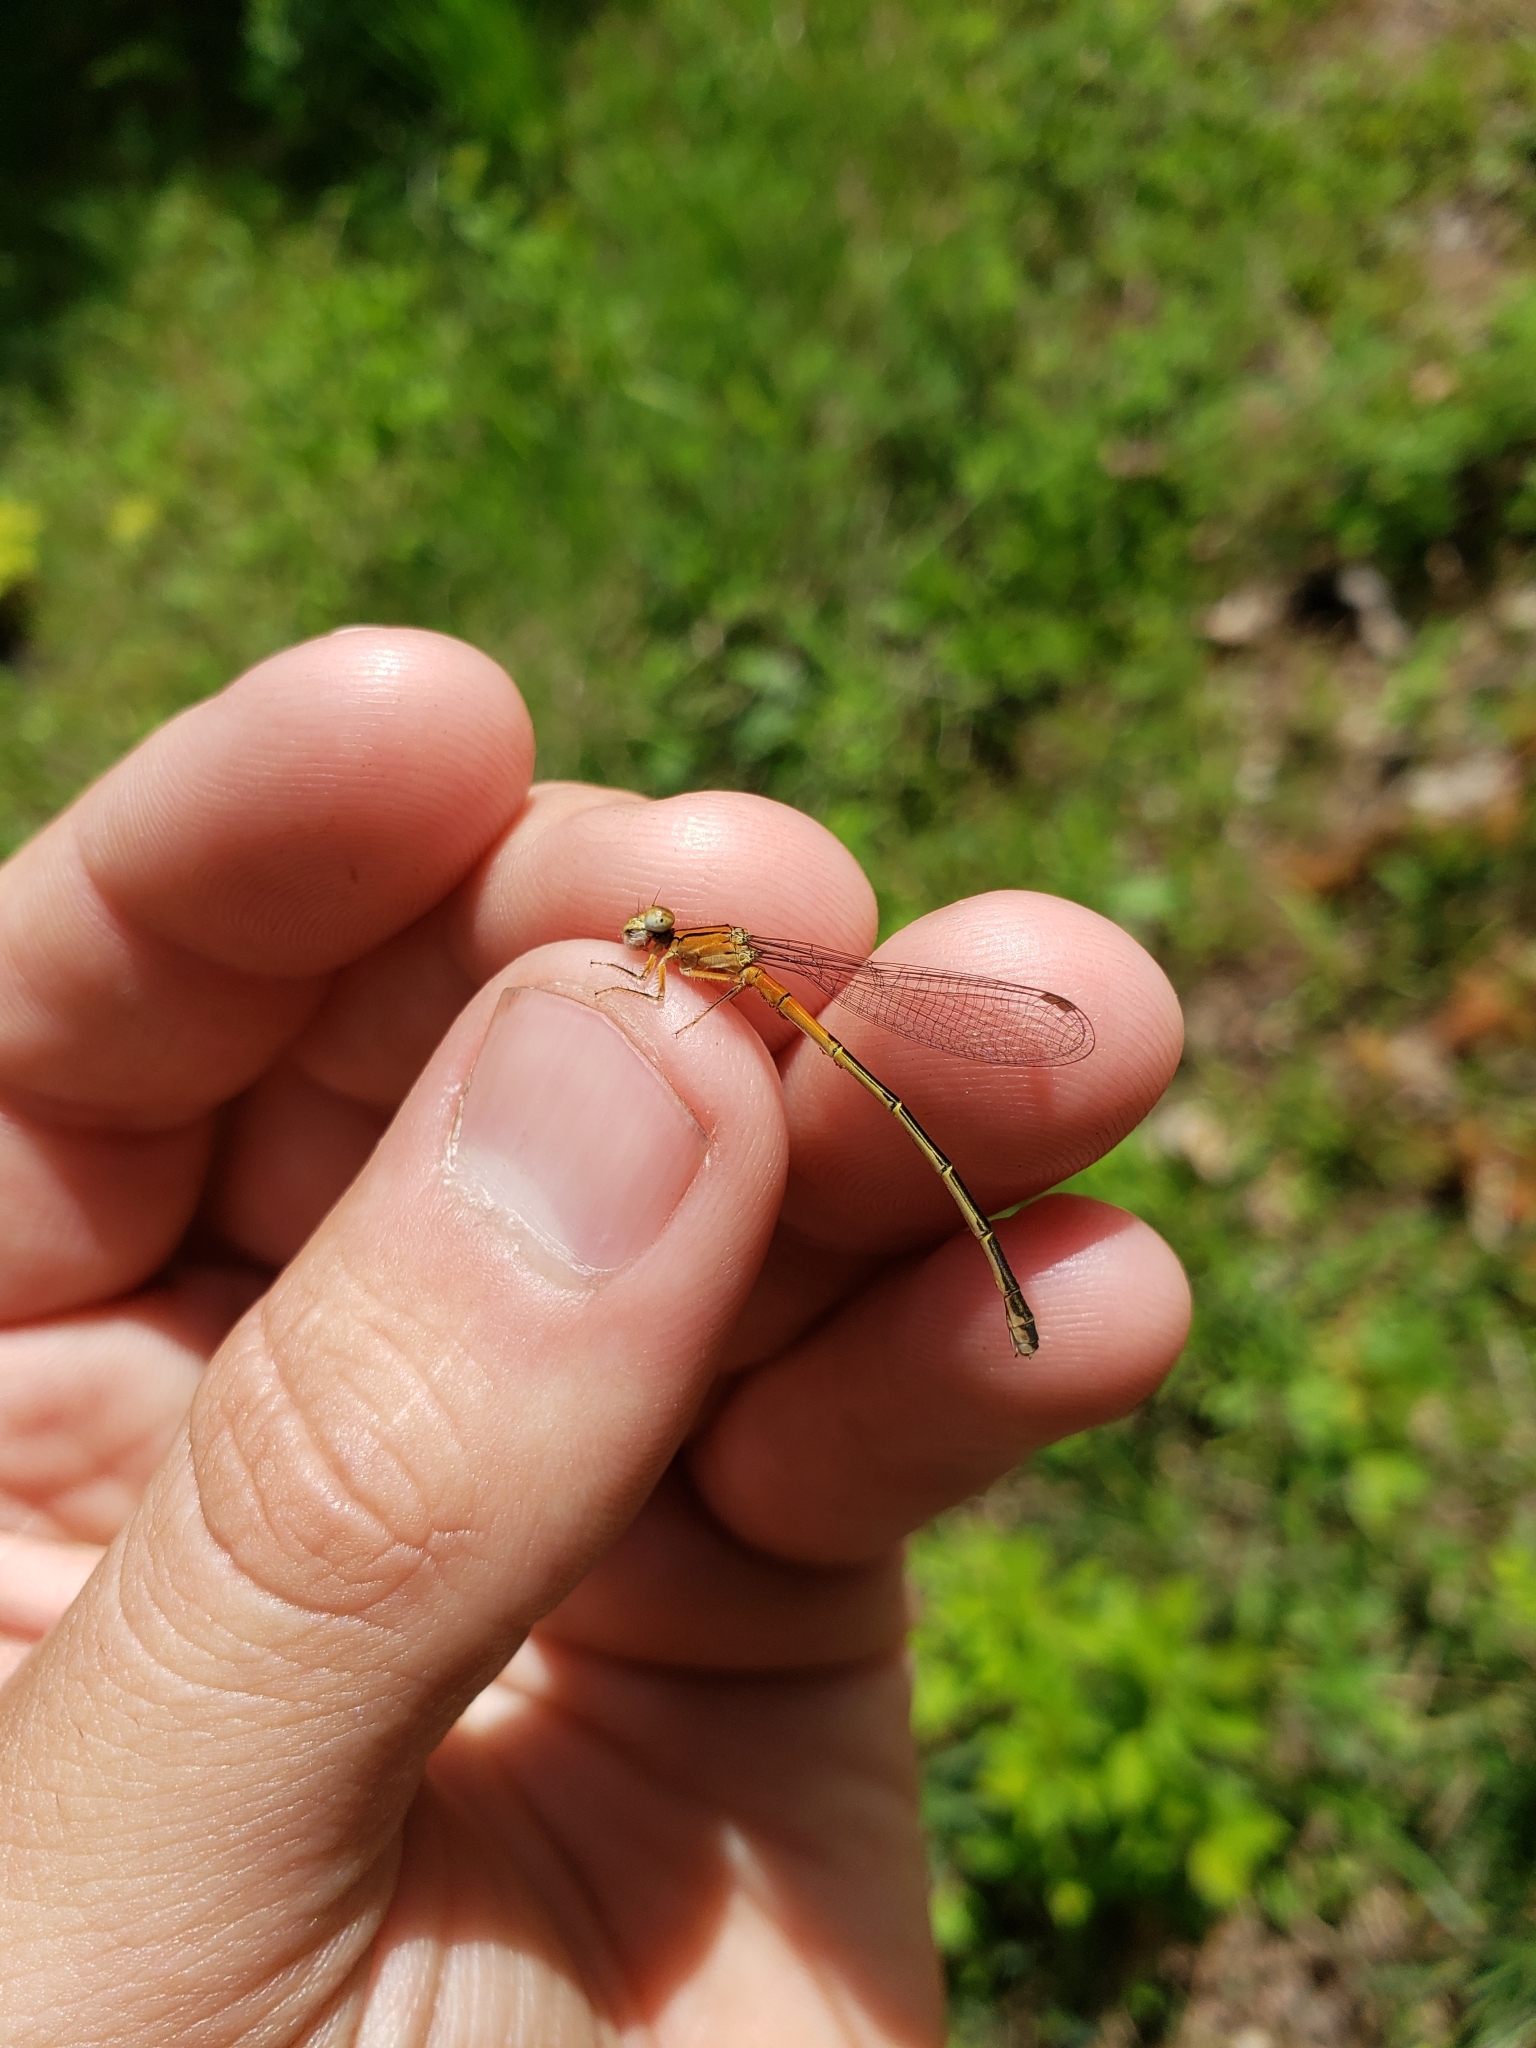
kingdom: Animalia
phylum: Arthropoda
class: Insecta
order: Odonata
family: Coenagrionidae
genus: Ischnura
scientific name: Ischnura verticalis
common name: Eastern forktail
